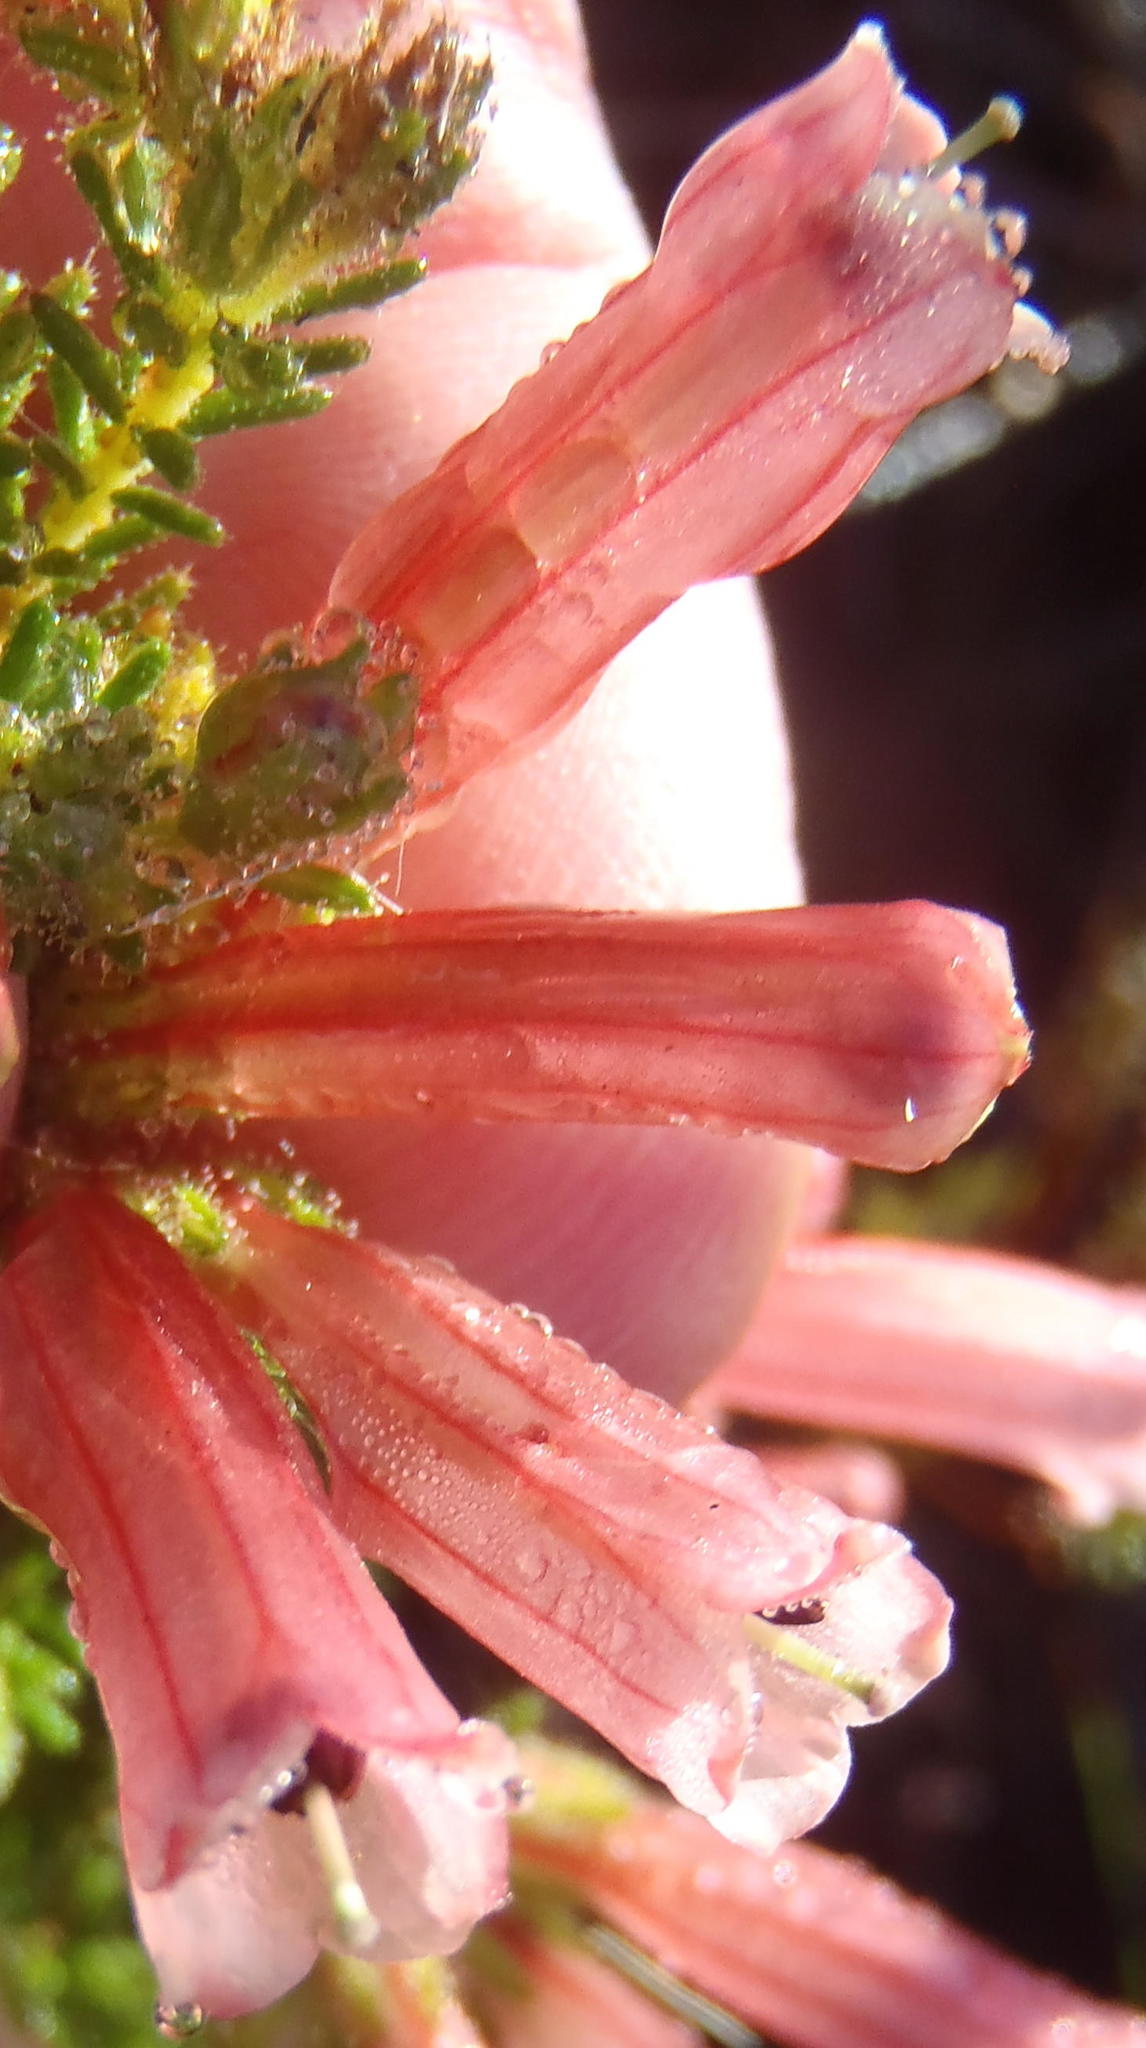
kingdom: Plantae
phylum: Tracheophyta
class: Magnoliopsida
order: Ericales
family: Ericaceae
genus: Erica
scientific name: Erica glandulosa
